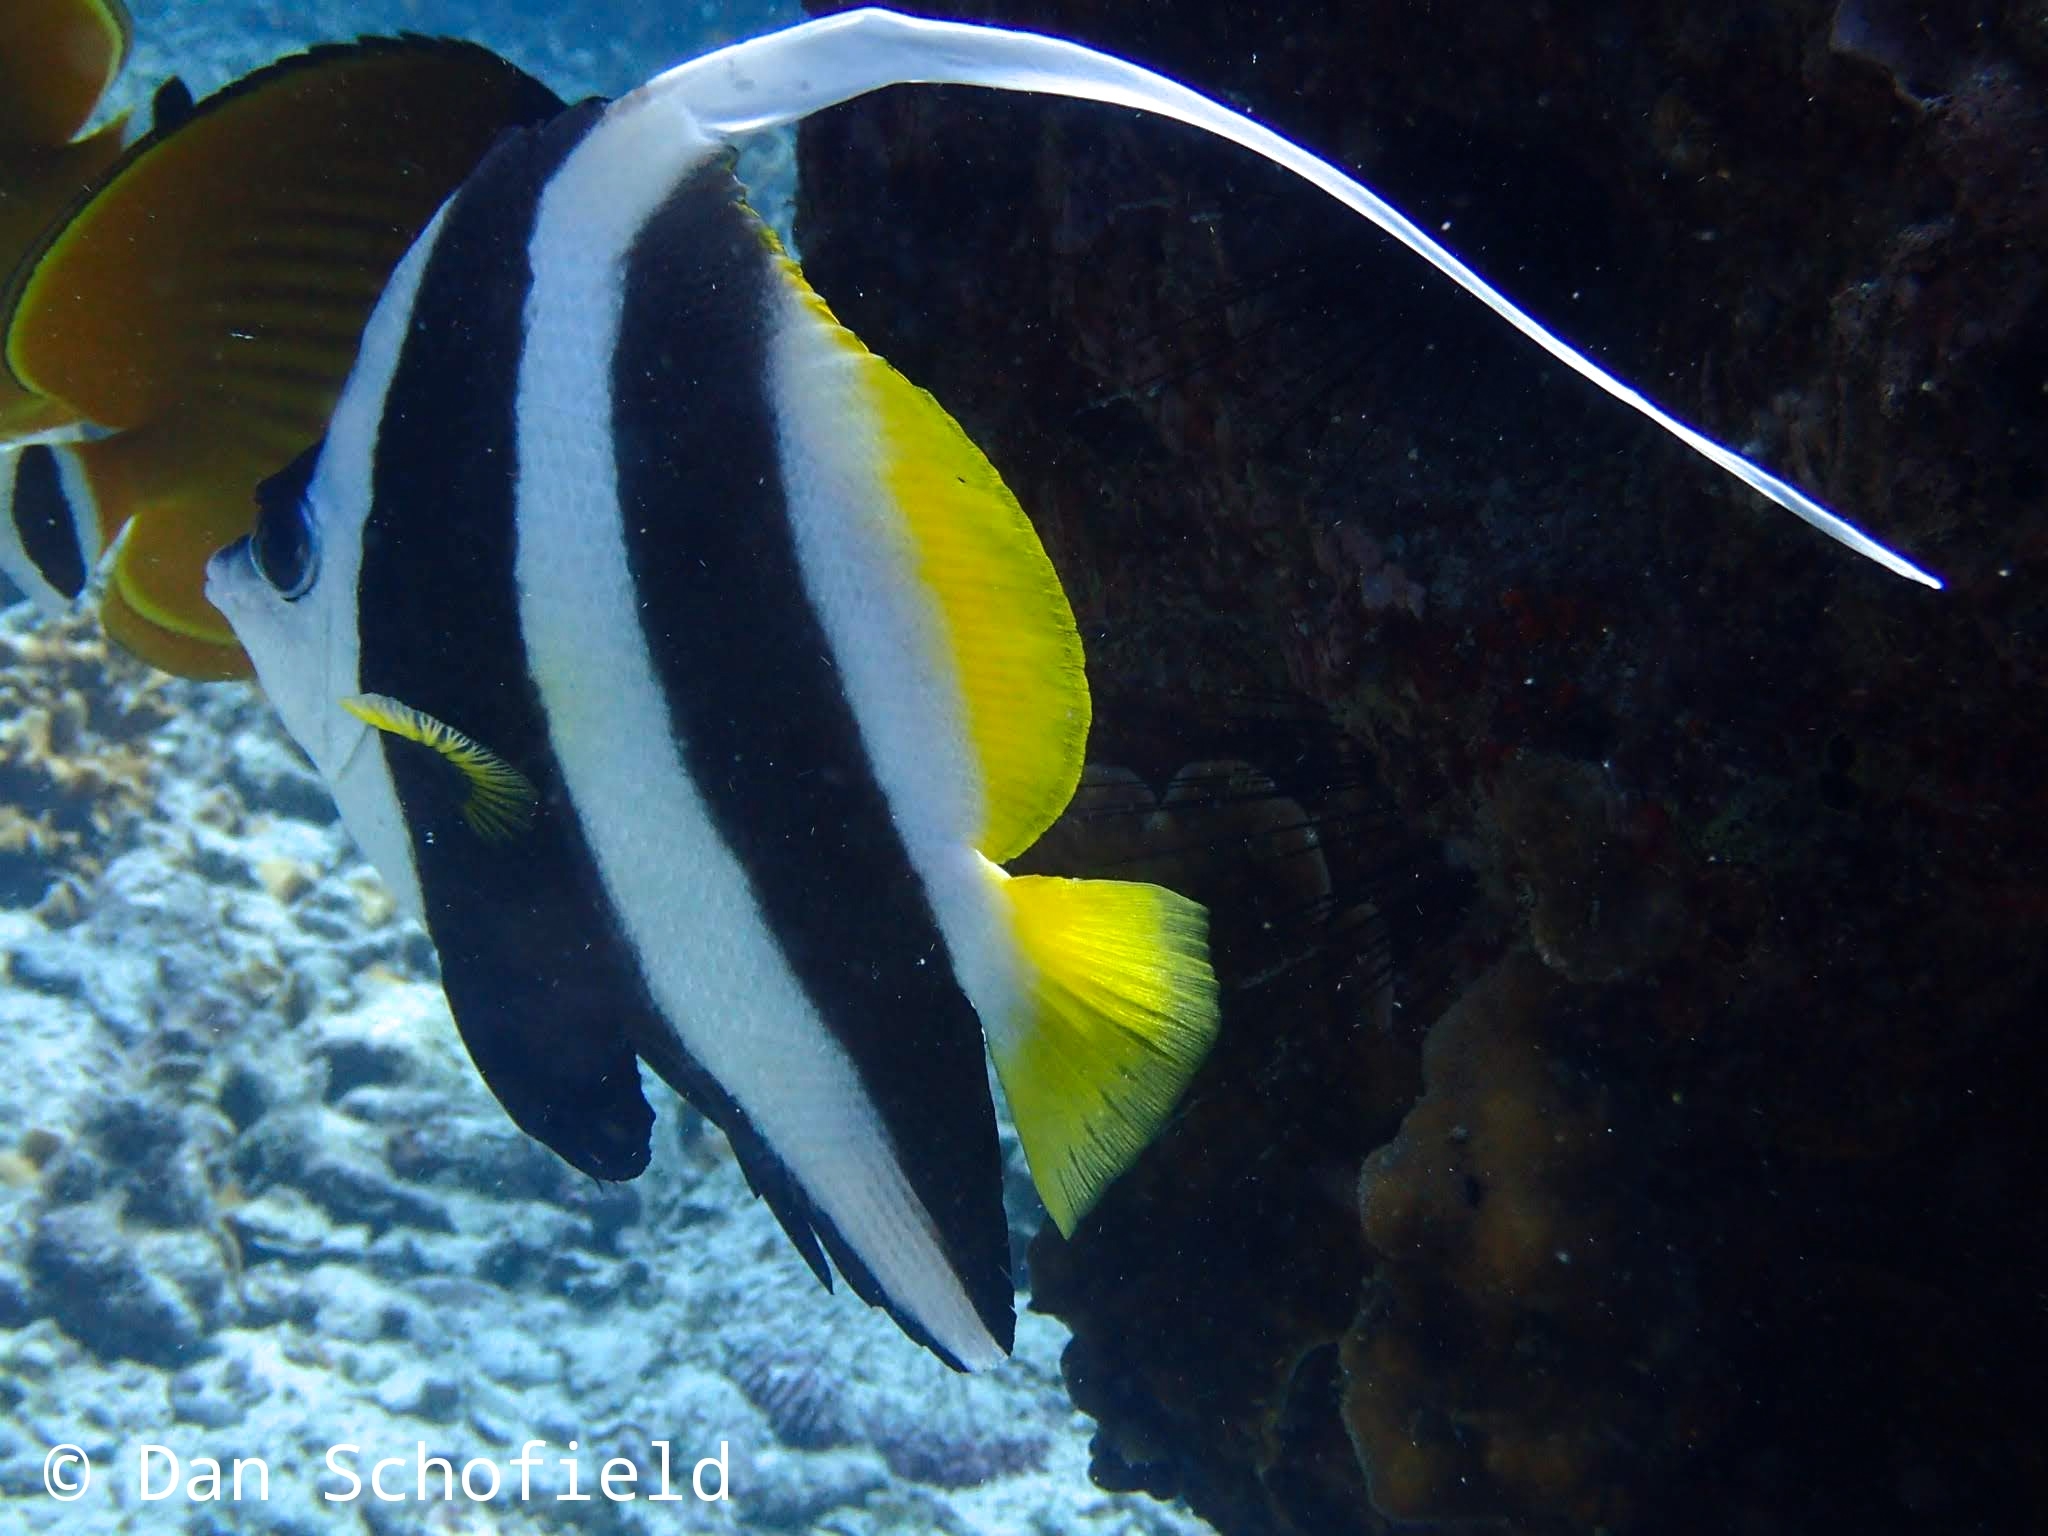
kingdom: Animalia
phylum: Chordata
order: Perciformes
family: Chaetodontidae
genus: Heniochus
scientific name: Heniochus acuminatus
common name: Pennant coralfish
